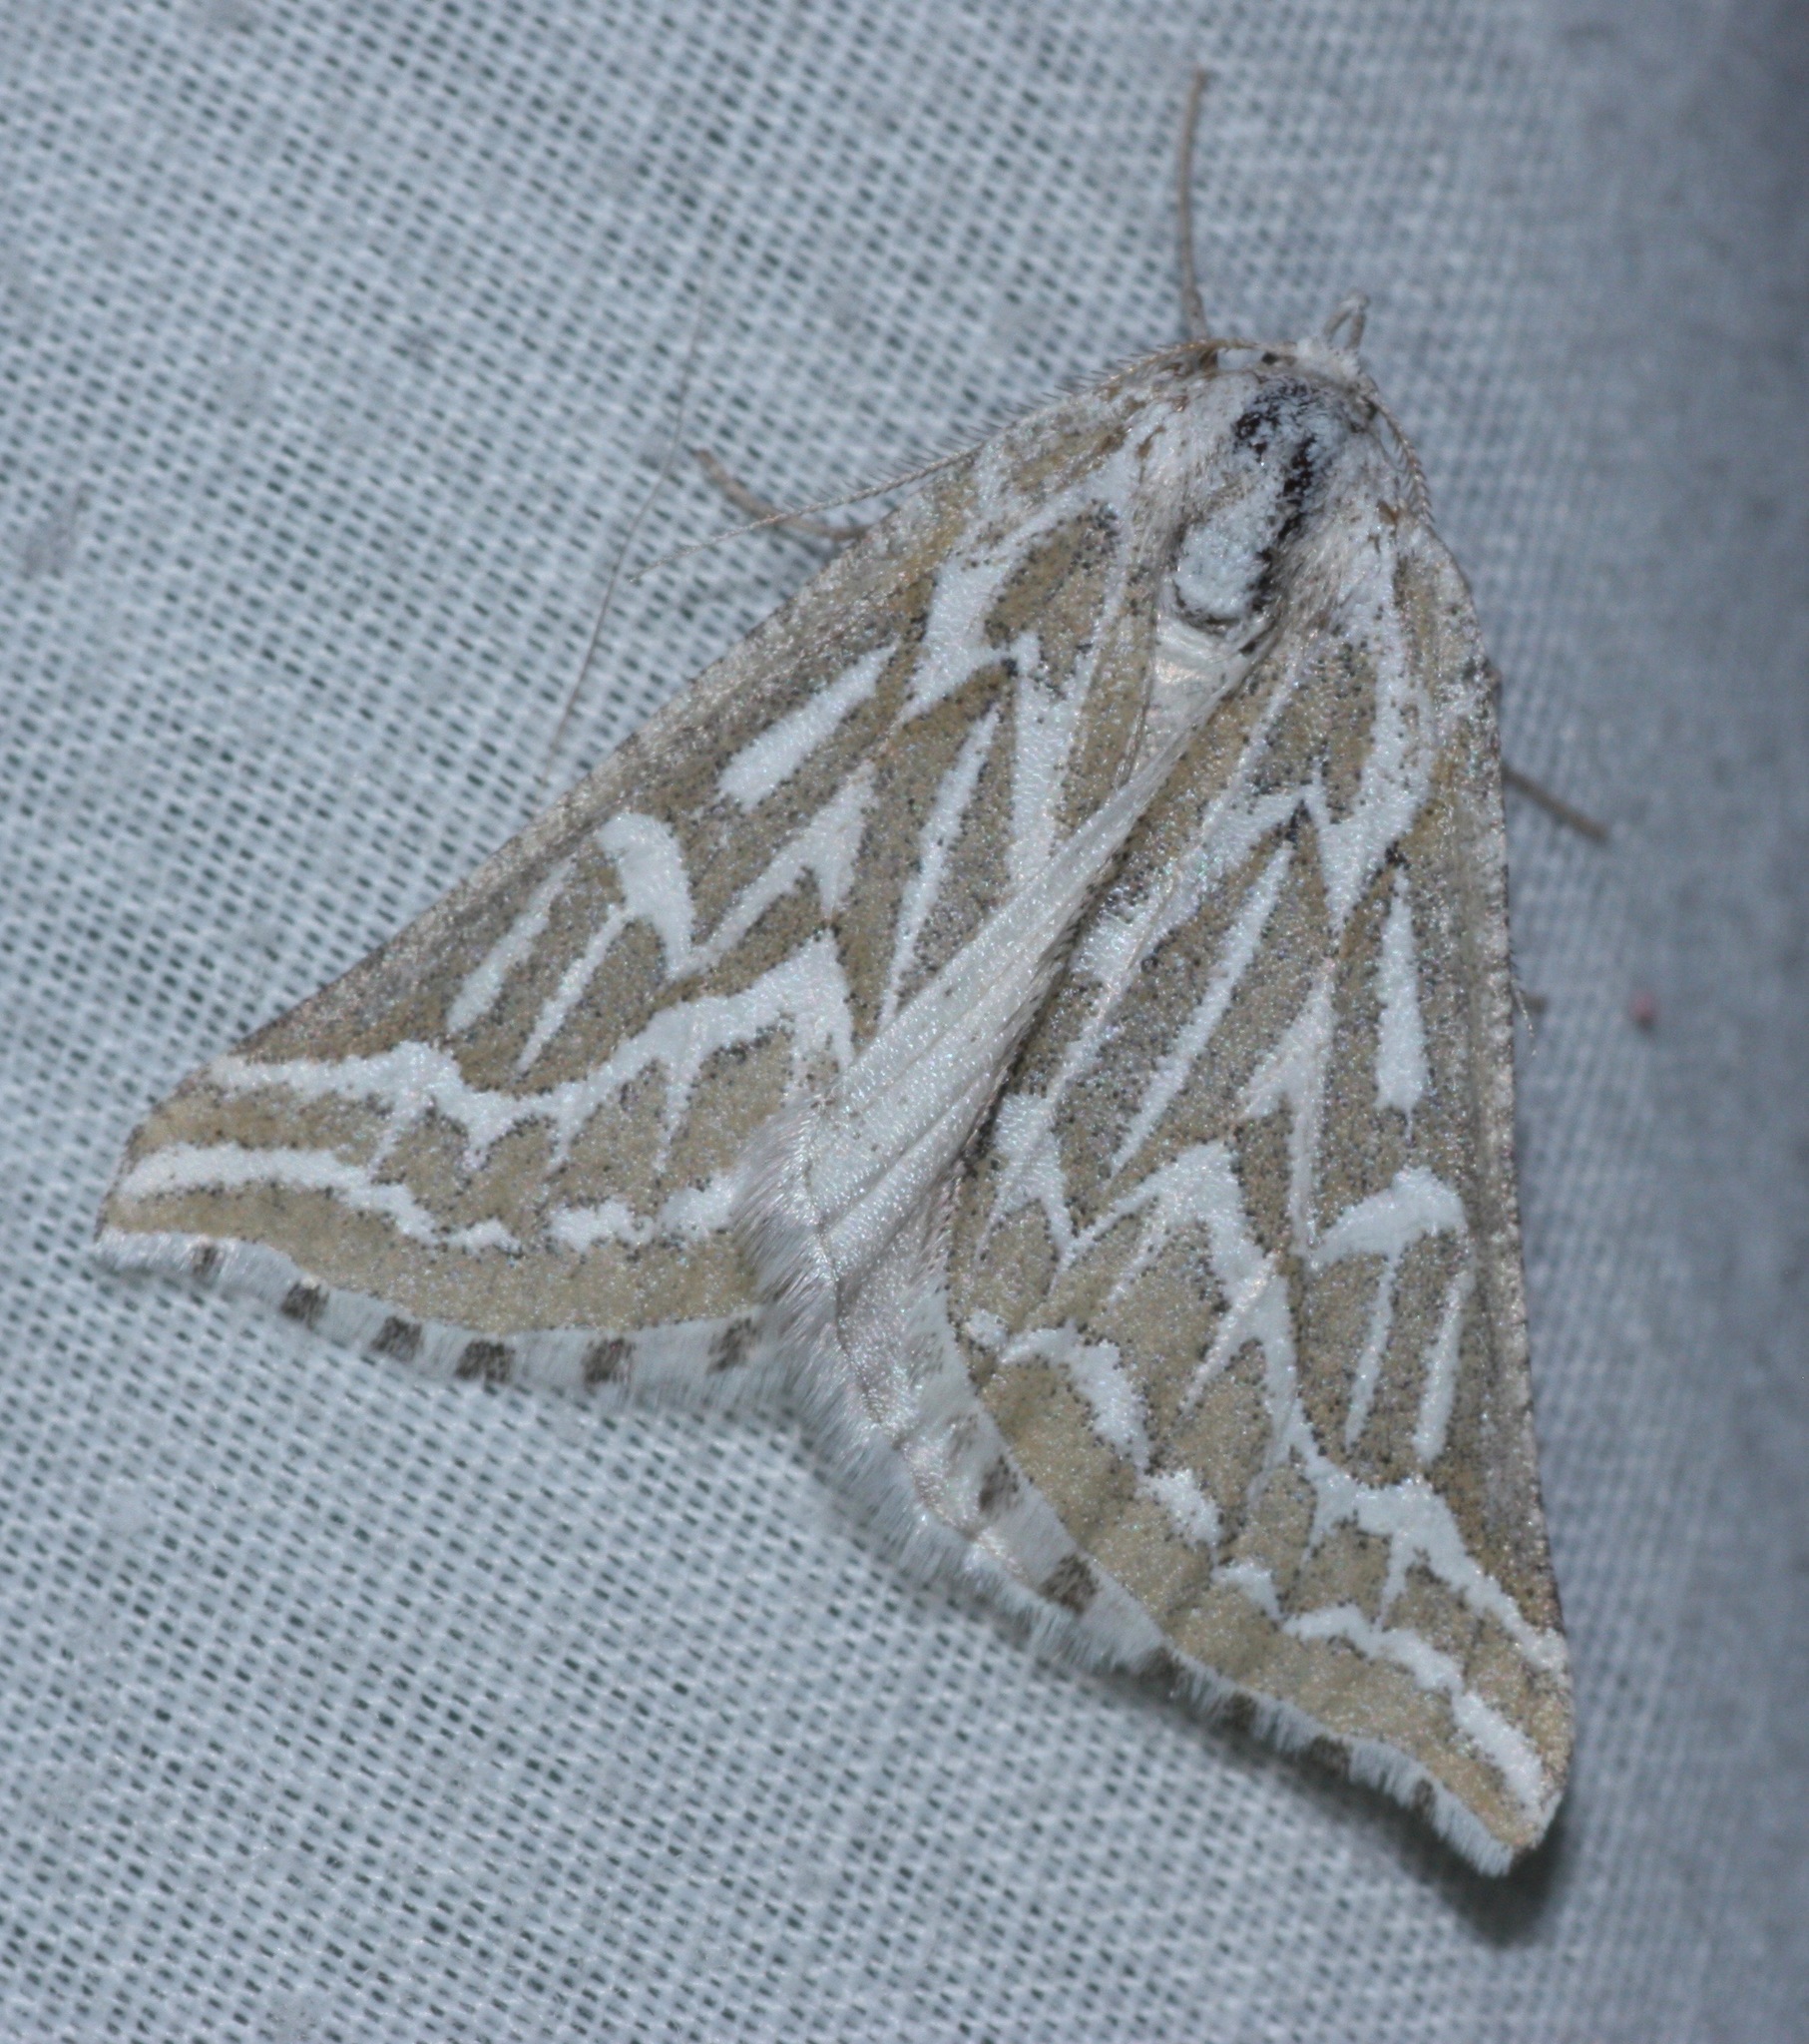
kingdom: Animalia
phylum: Arthropoda
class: Insecta
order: Lepidoptera
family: Geometridae
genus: Plataea
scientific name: Plataea trilinearia
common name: Sagebrush girdle moth
